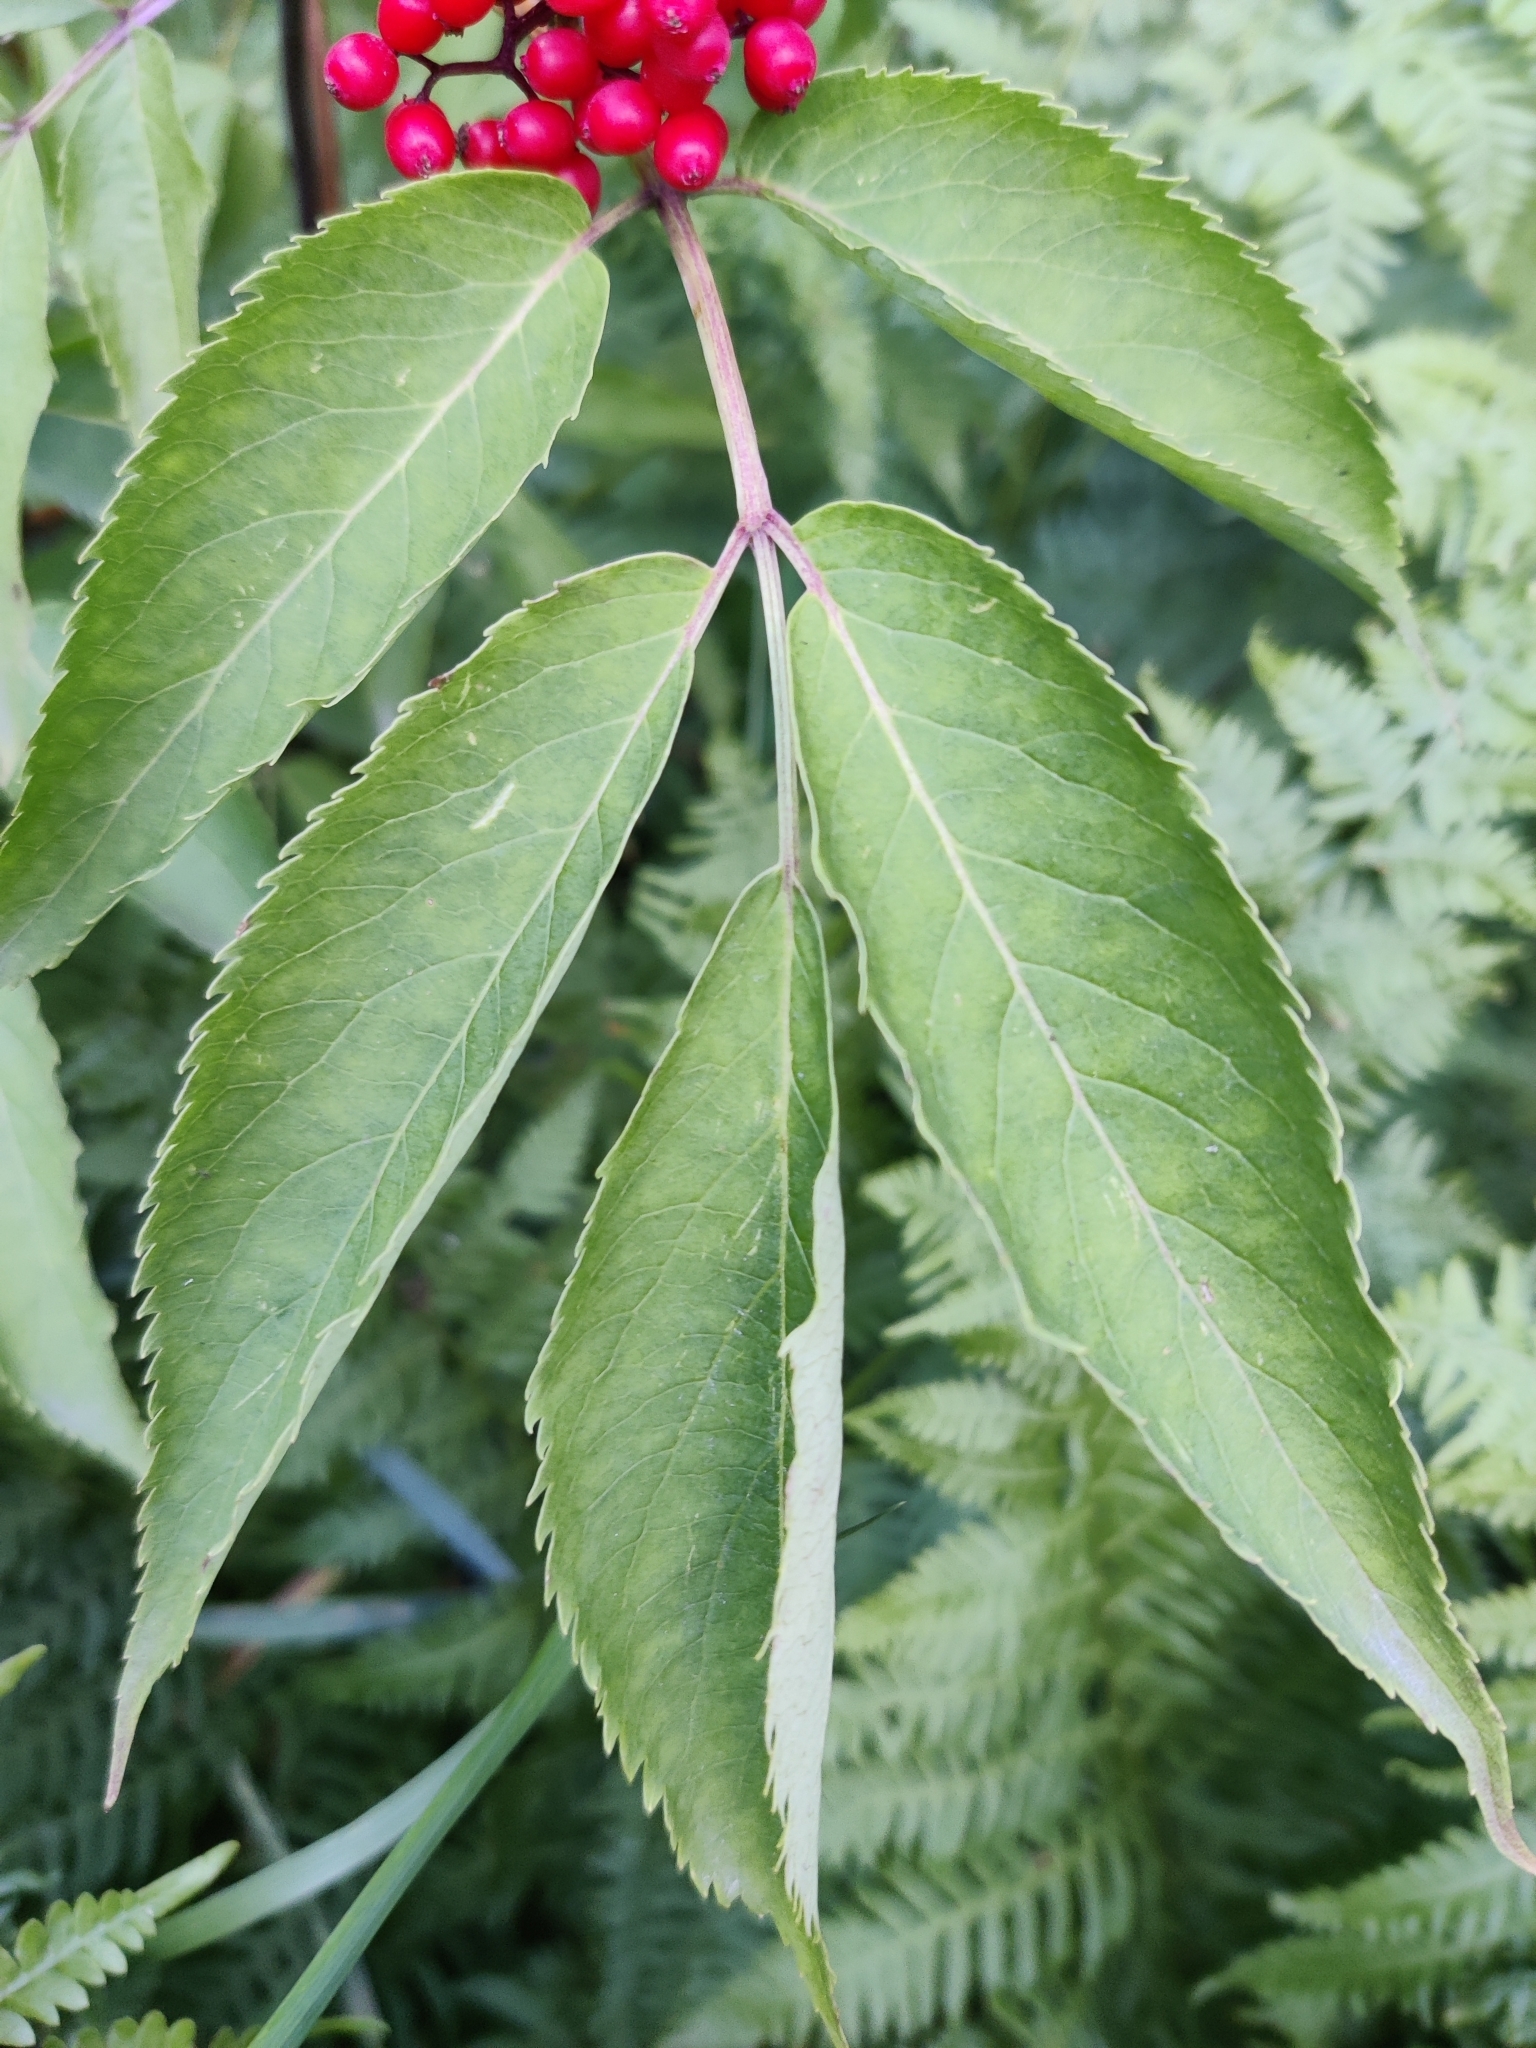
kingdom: Plantae
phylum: Tracheophyta
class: Magnoliopsida
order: Dipsacales
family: Viburnaceae
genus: Sambucus
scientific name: Sambucus racemosa
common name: Red-berried elder
